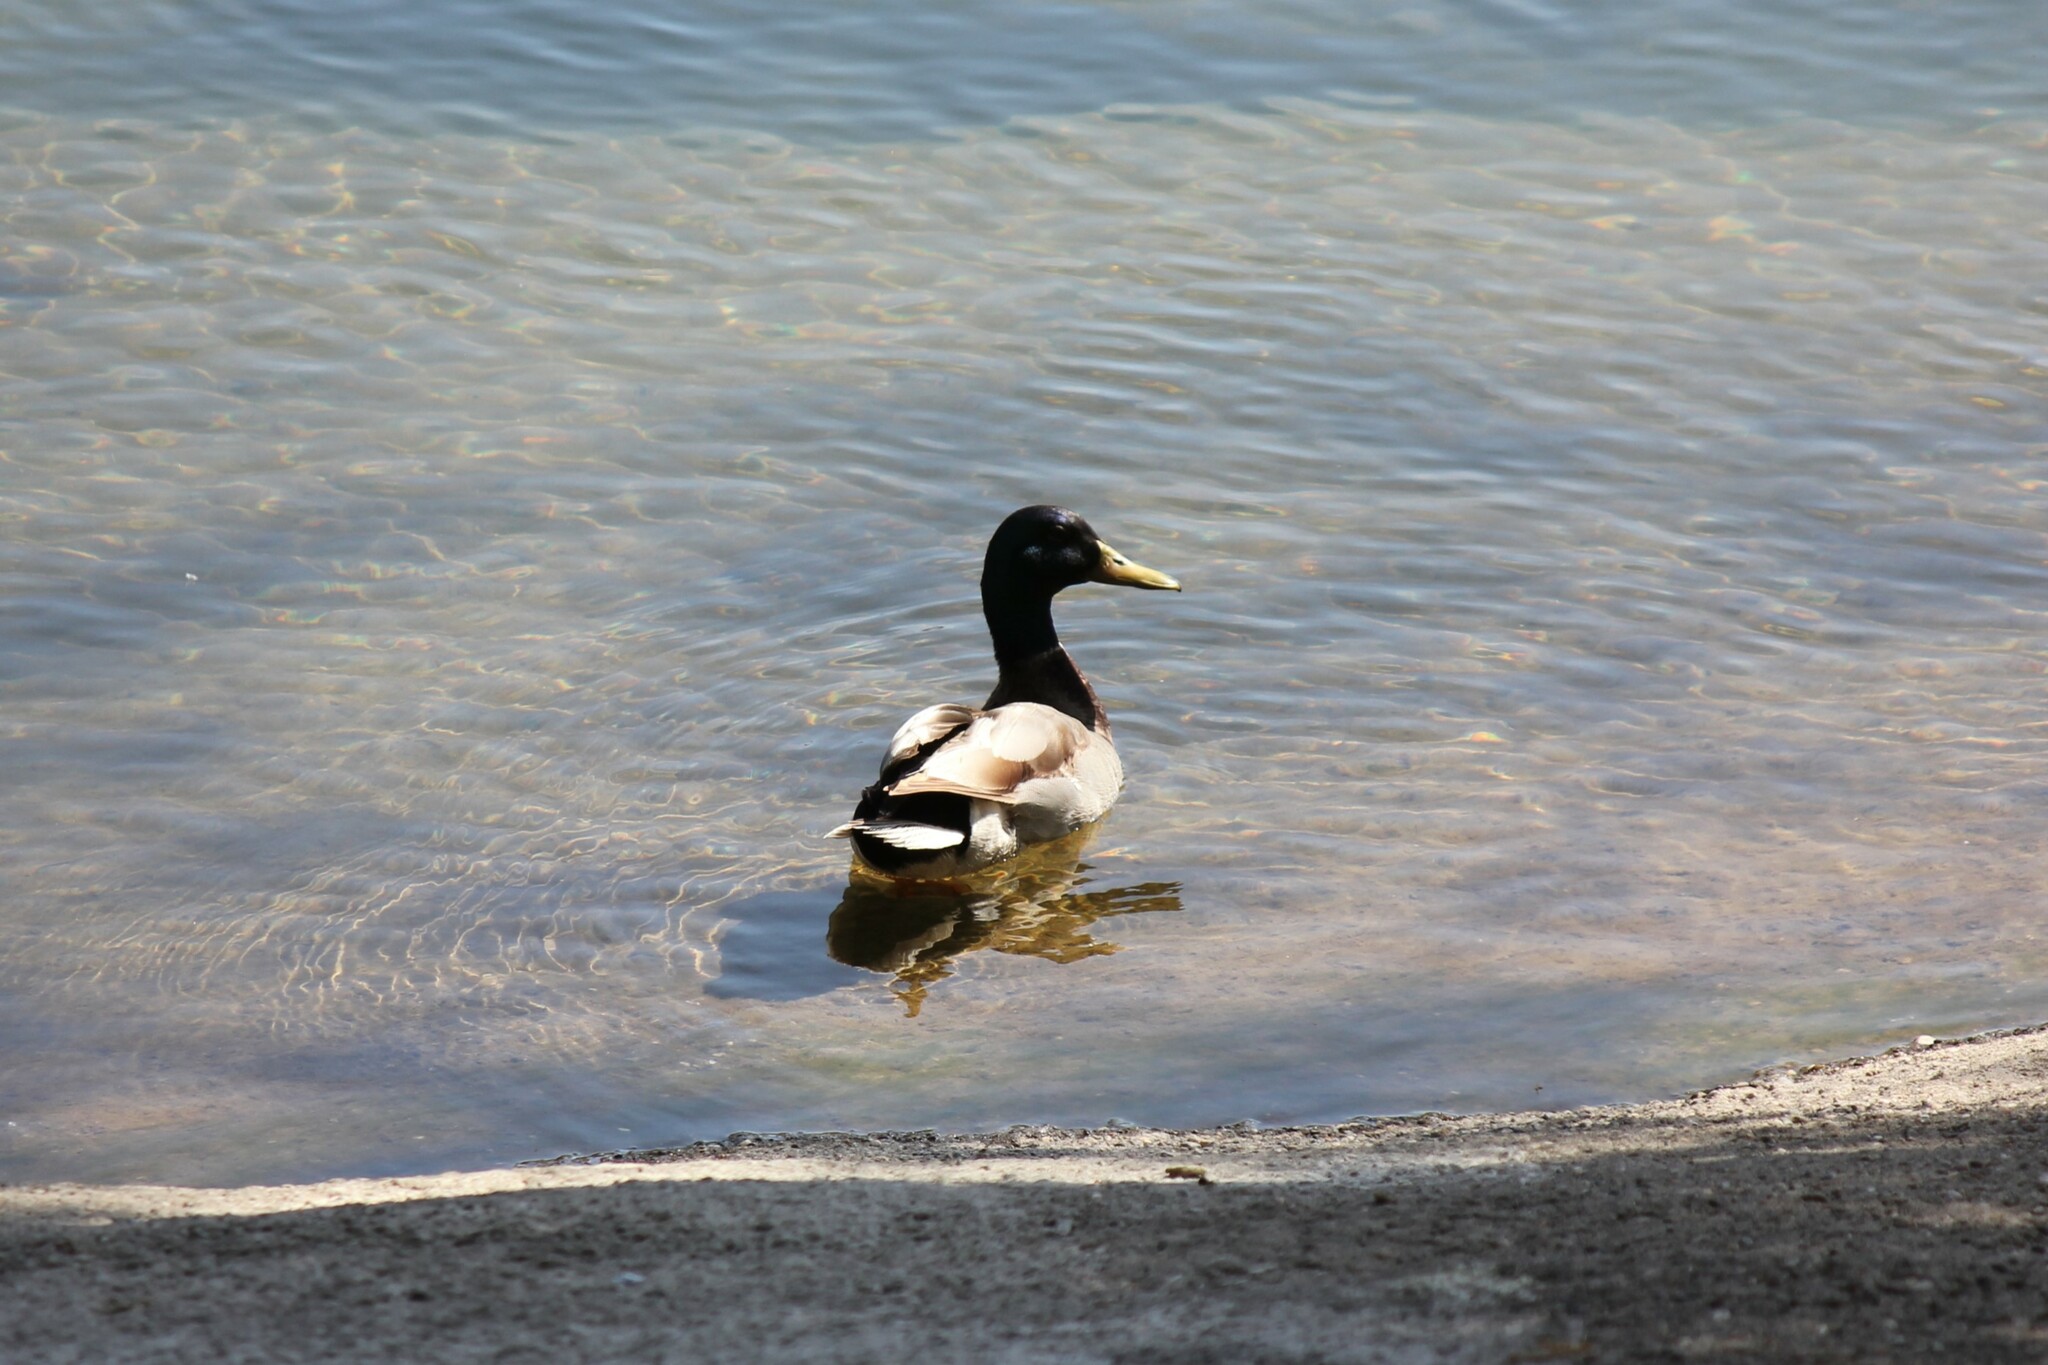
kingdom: Animalia
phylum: Chordata
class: Aves
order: Anseriformes
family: Anatidae
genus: Anas
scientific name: Anas platyrhynchos
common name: Mallard
